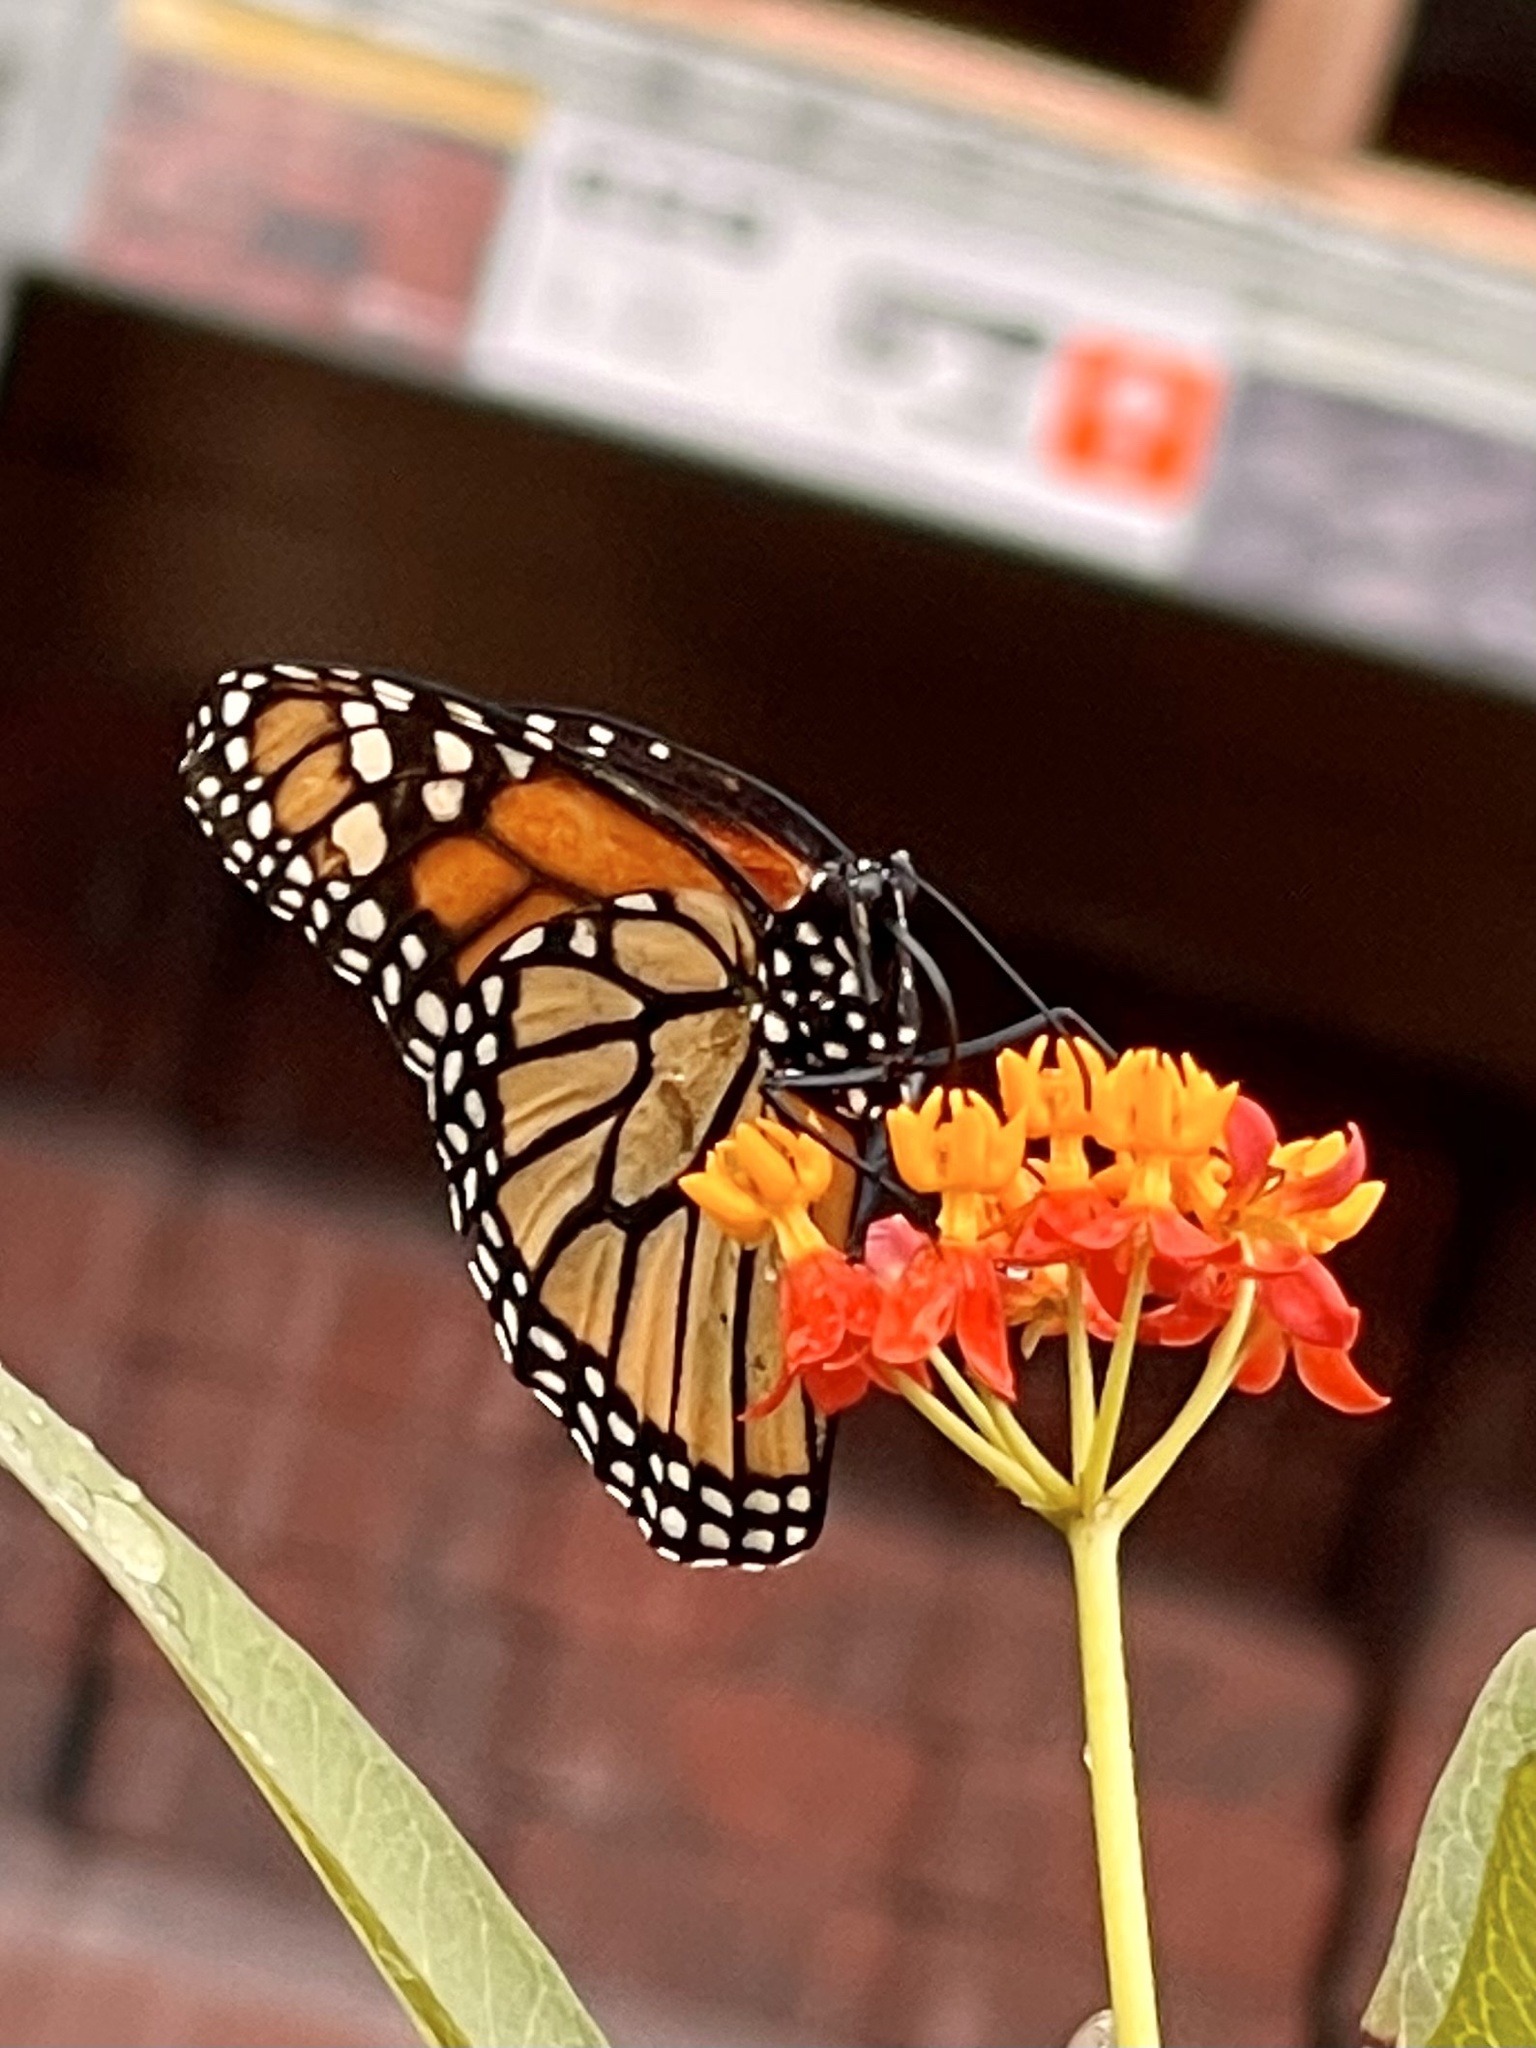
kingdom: Animalia
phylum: Arthropoda
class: Insecta
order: Lepidoptera
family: Nymphalidae
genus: Danaus
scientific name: Danaus plexippus
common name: Monarch
